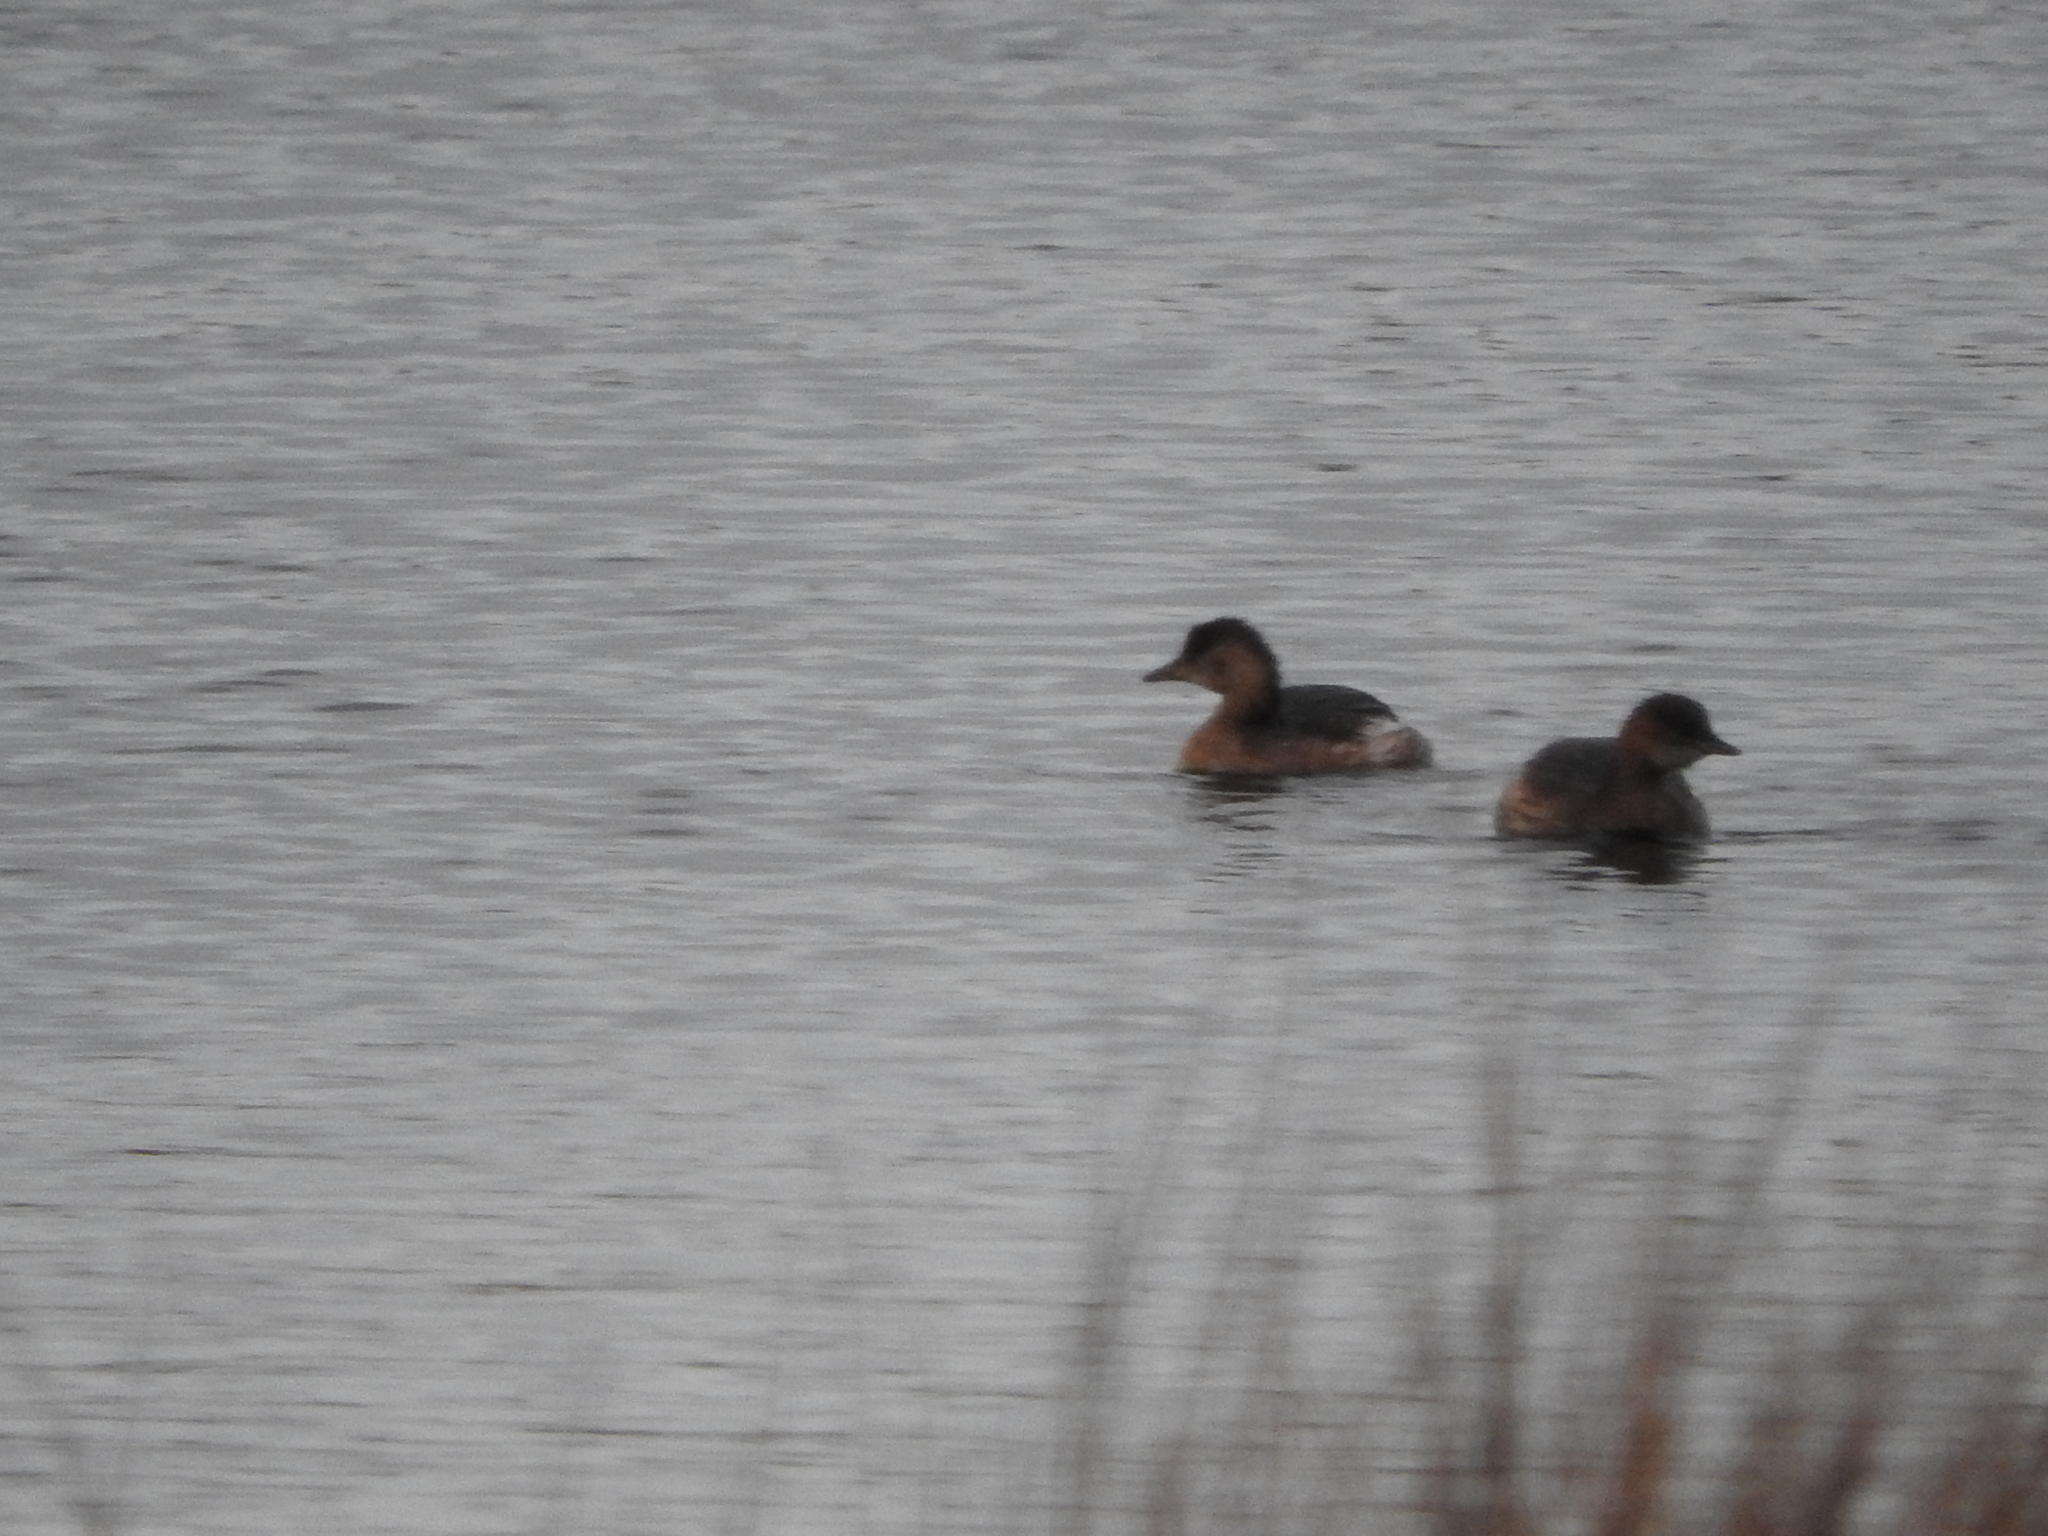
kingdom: Animalia
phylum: Chordata
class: Aves
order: Podicipediformes
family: Podicipedidae
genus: Tachybaptus
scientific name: Tachybaptus ruficollis
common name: Little grebe
